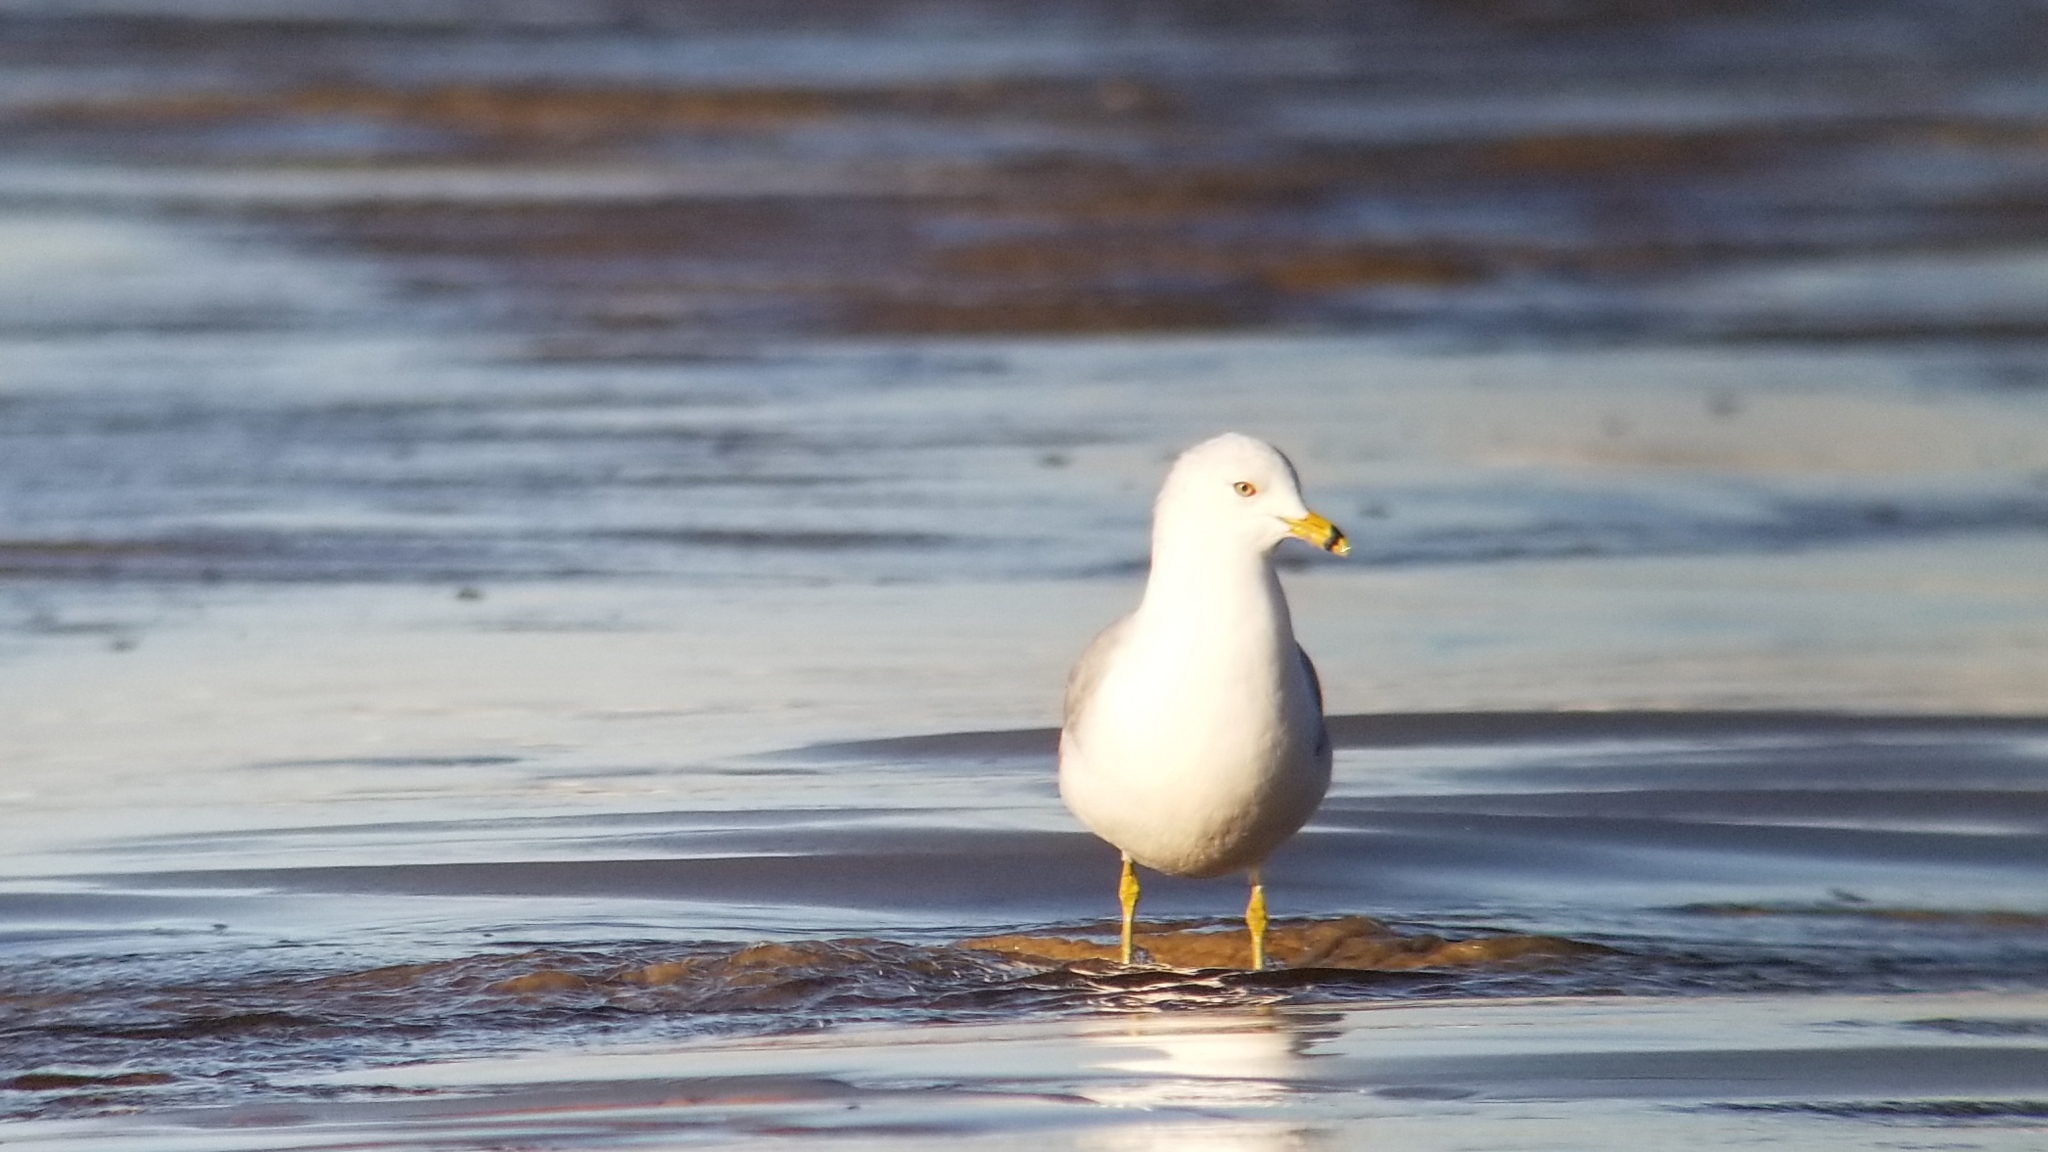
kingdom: Animalia
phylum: Chordata
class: Aves
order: Charadriiformes
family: Laridae
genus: Larus
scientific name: Larus delawarensis
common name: Ring-billed gull
